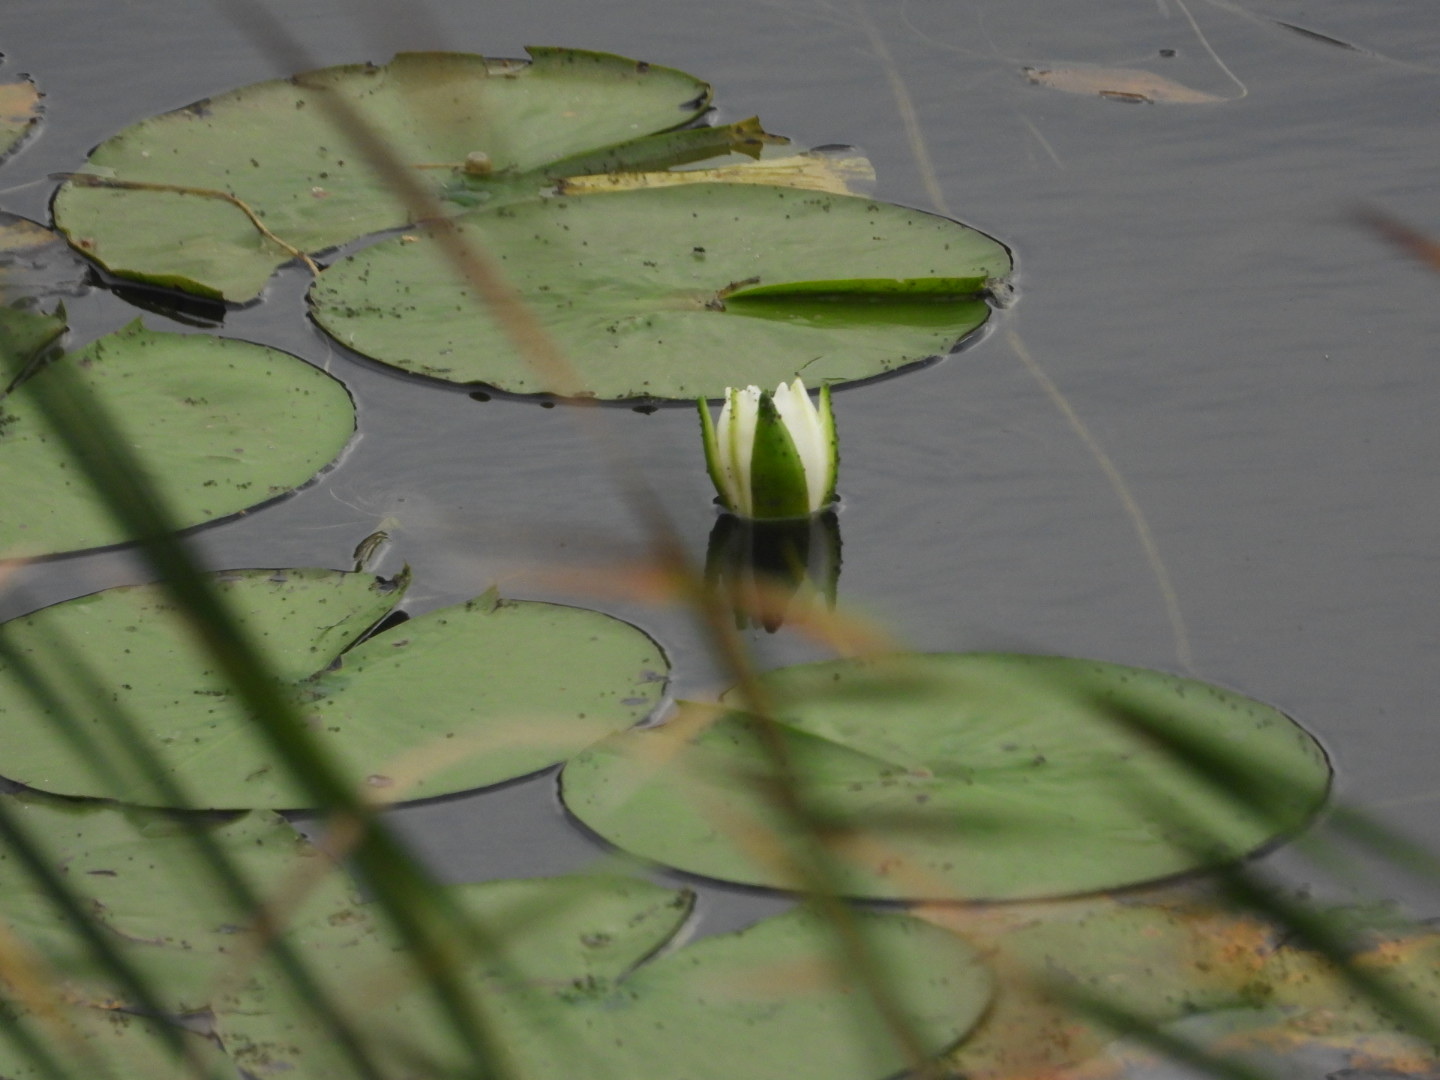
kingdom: Plantae
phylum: Tracheophyta
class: Magnoliopsida
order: Nymphaeales
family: Nymphaeaceae
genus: Nymphaea
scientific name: Nymphaea odorata
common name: Fragrant water-lily
